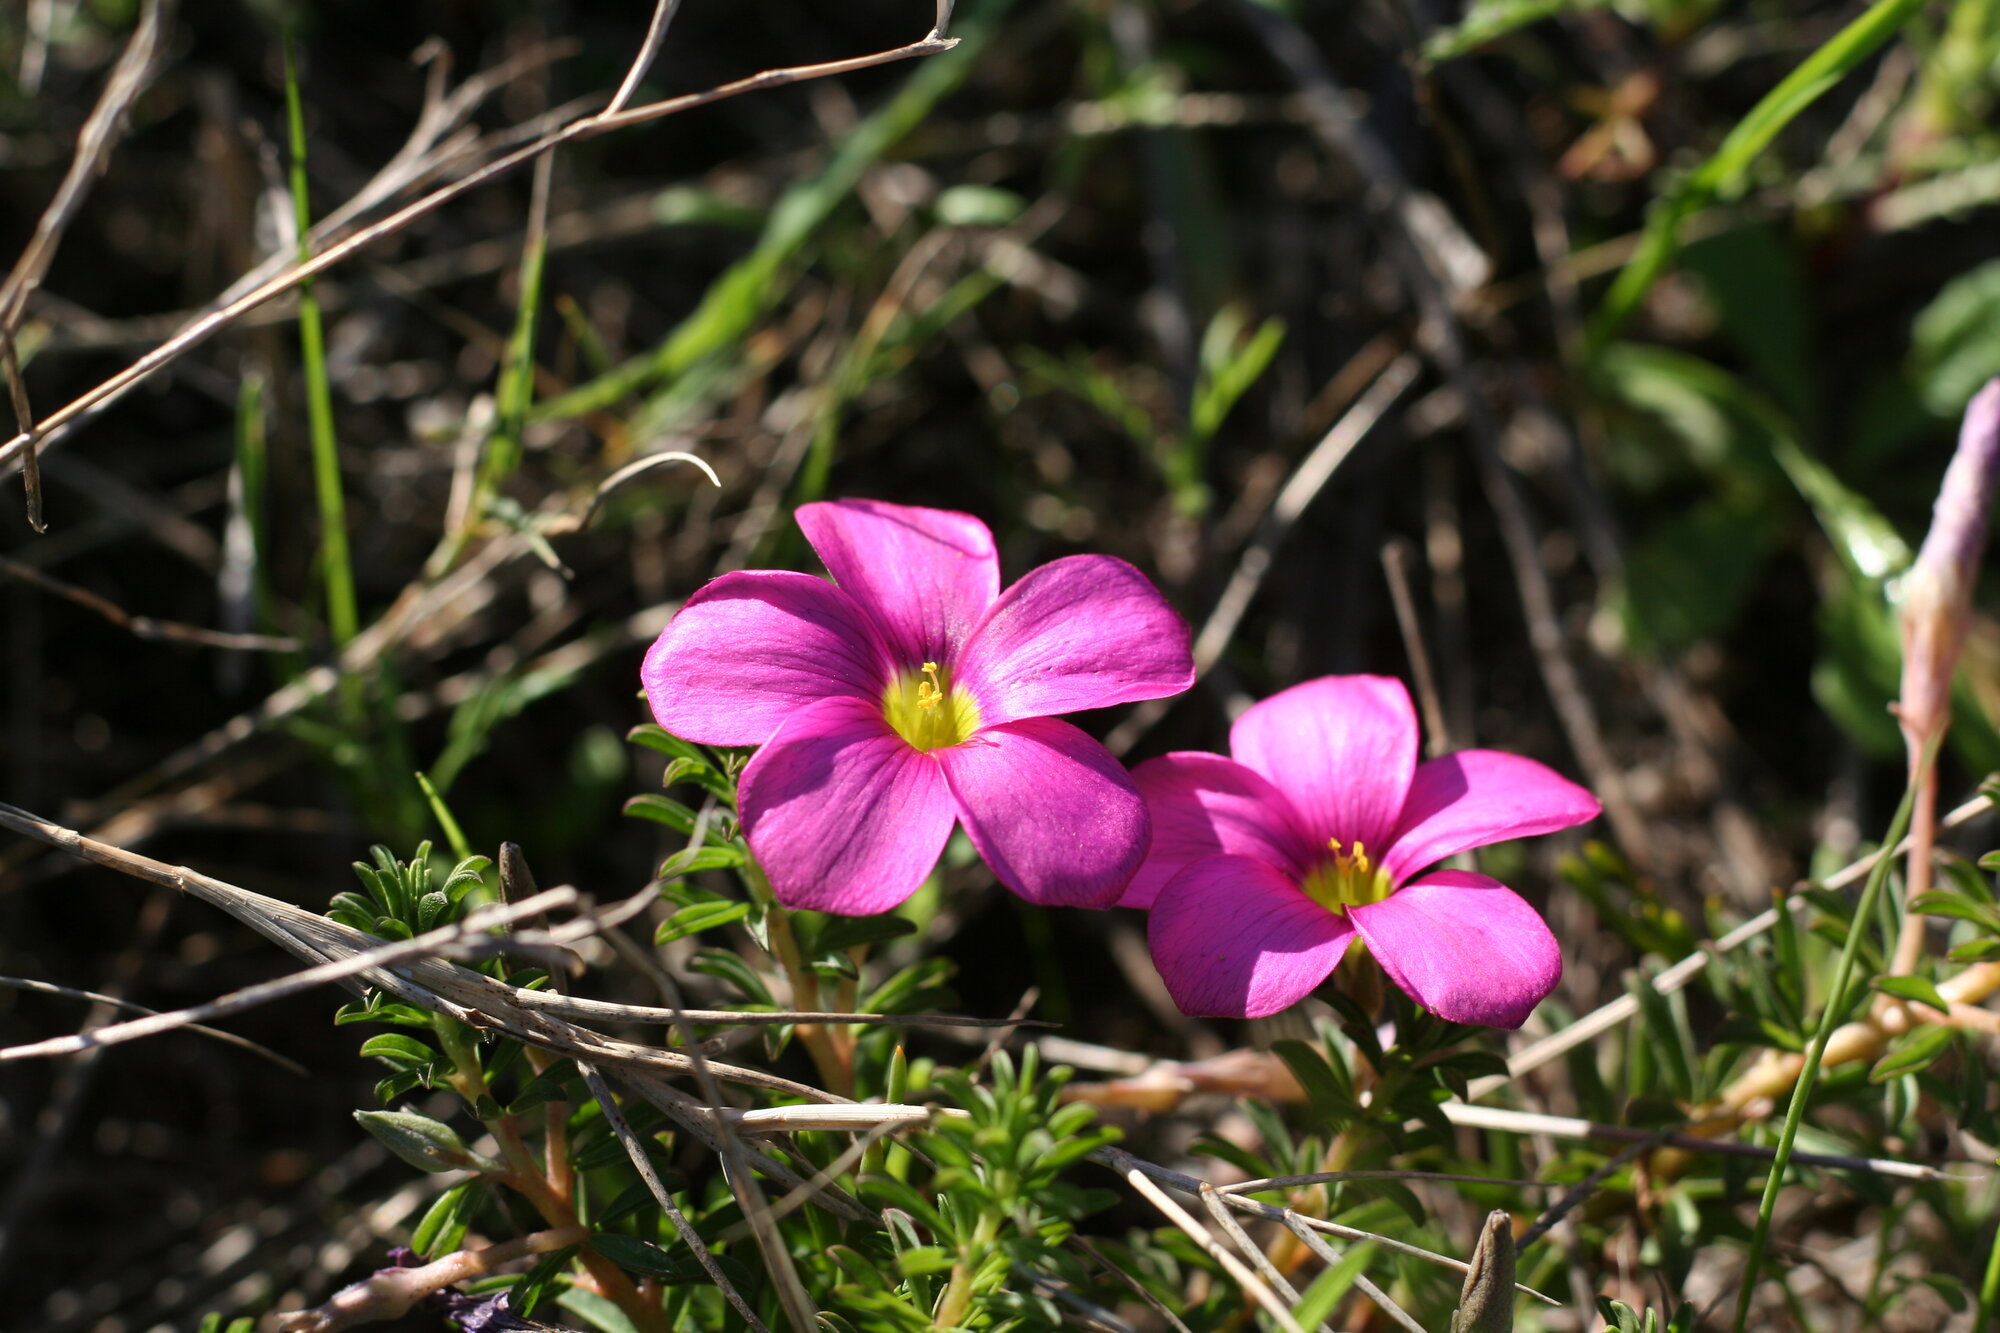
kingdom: Plantae
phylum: Tracheophyta
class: Magnoliopsida
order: Oxalidales
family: Oxalidaceae
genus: Oxalis
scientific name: Oxalis hirta
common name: Tropical woodsorrel
